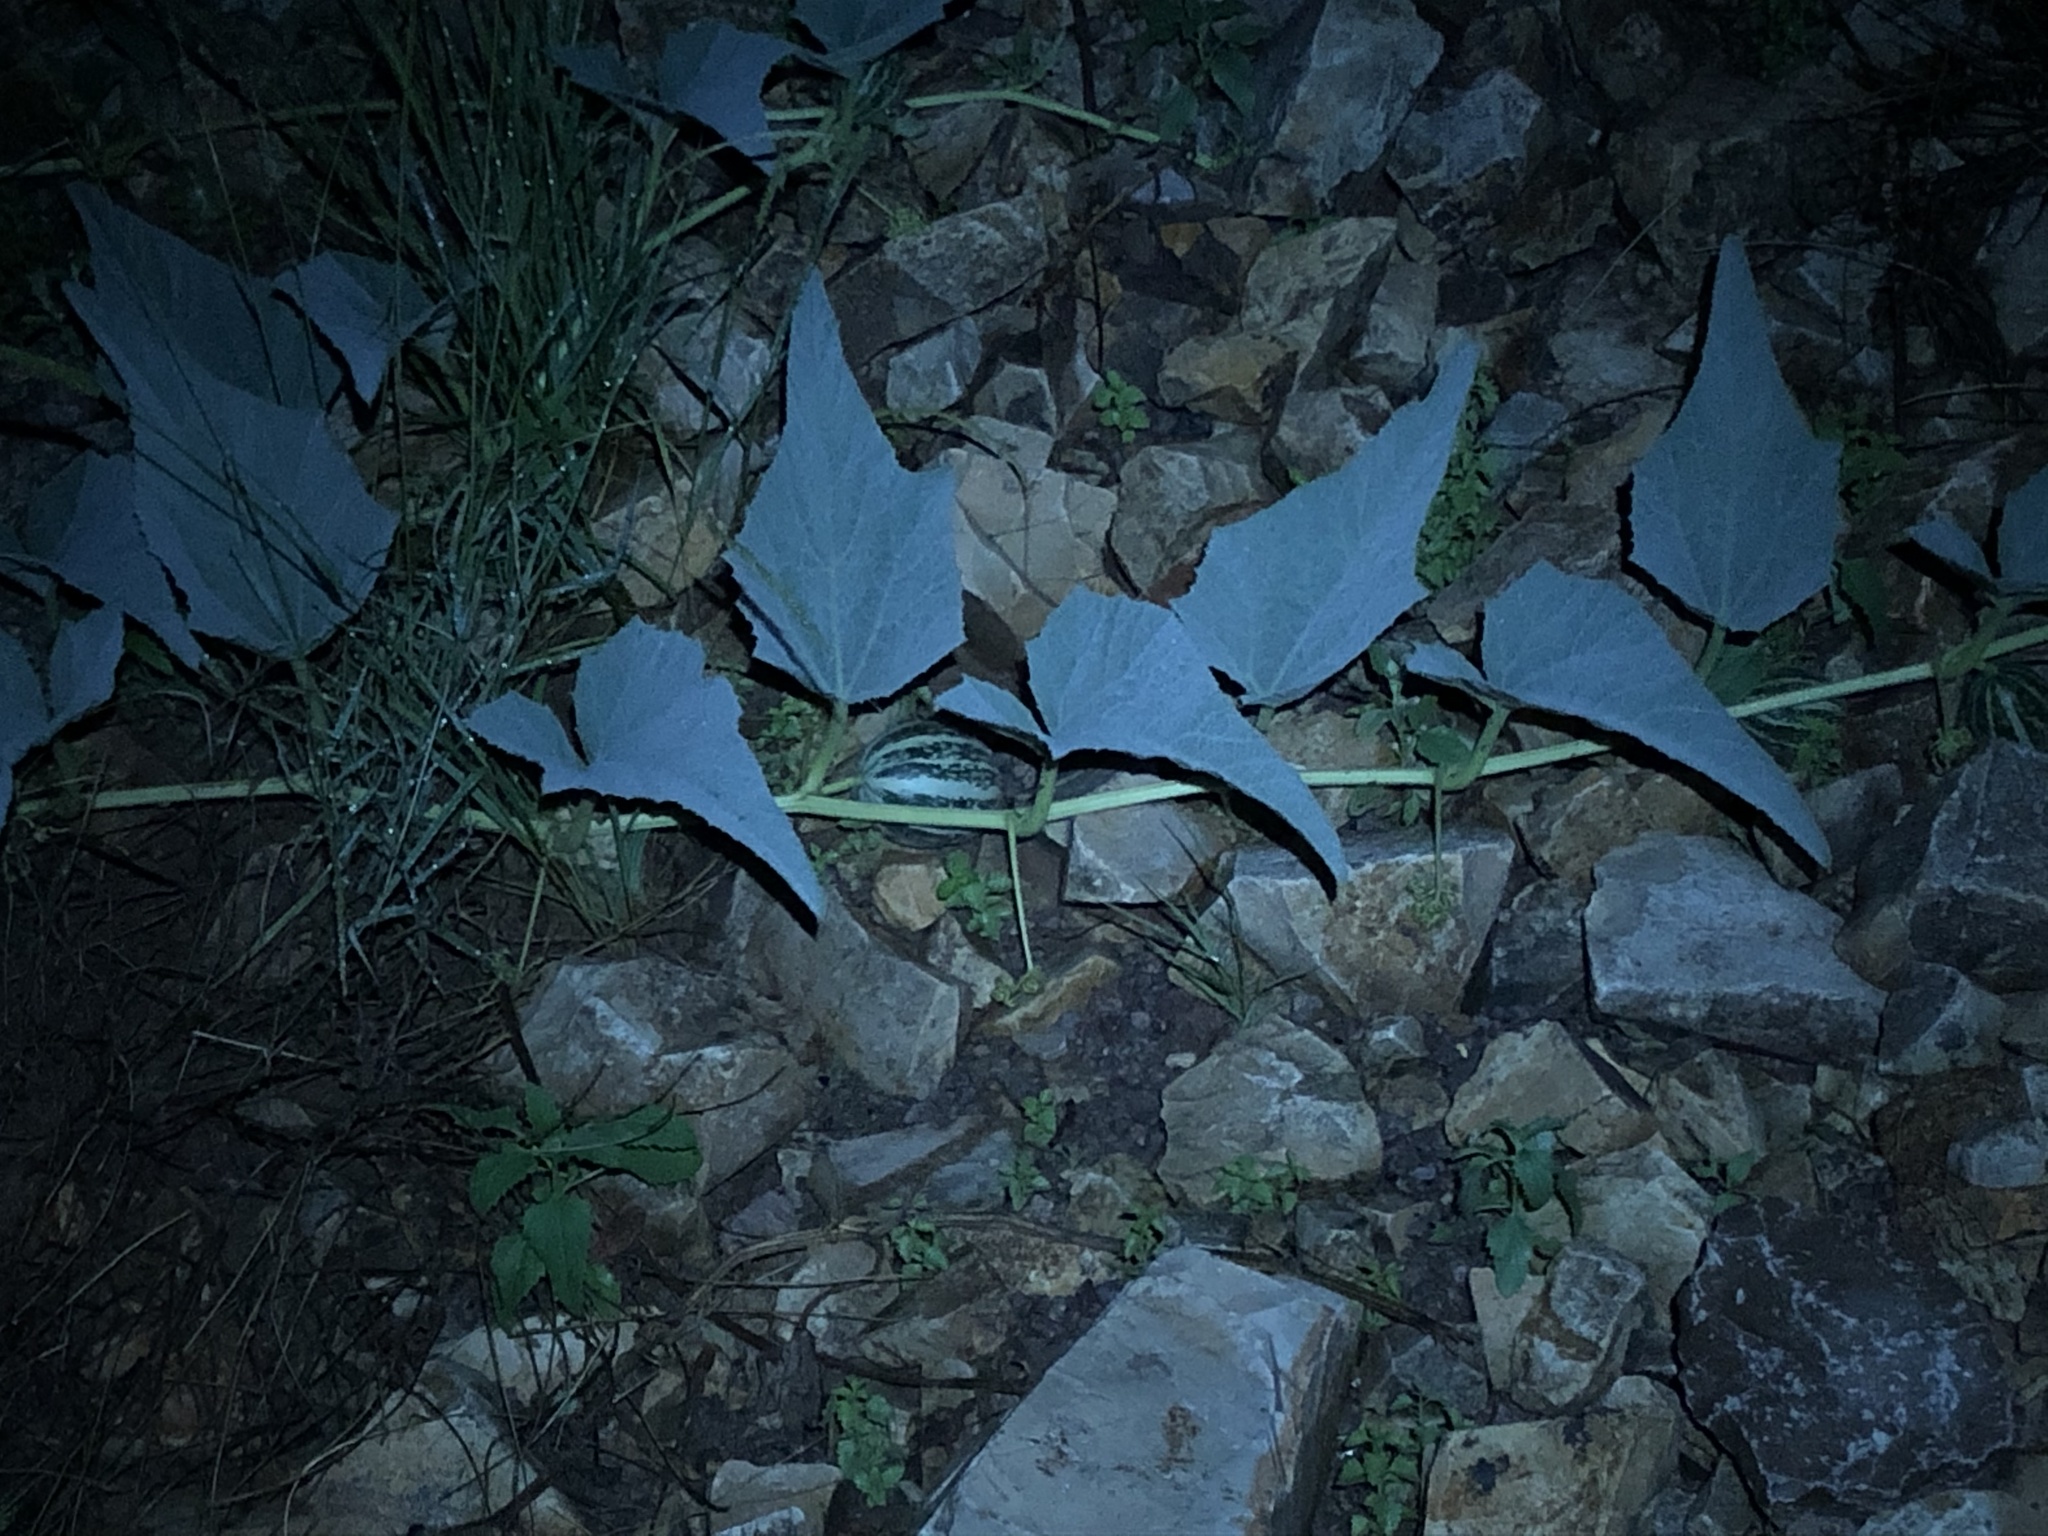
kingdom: Plantae
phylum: Tracheophyta
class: Magnoliopsida
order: Cucurbitales
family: Cucurbitaceae
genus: Cucurbita
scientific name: Cucurbita foetidissima
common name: Buffalo gourd
